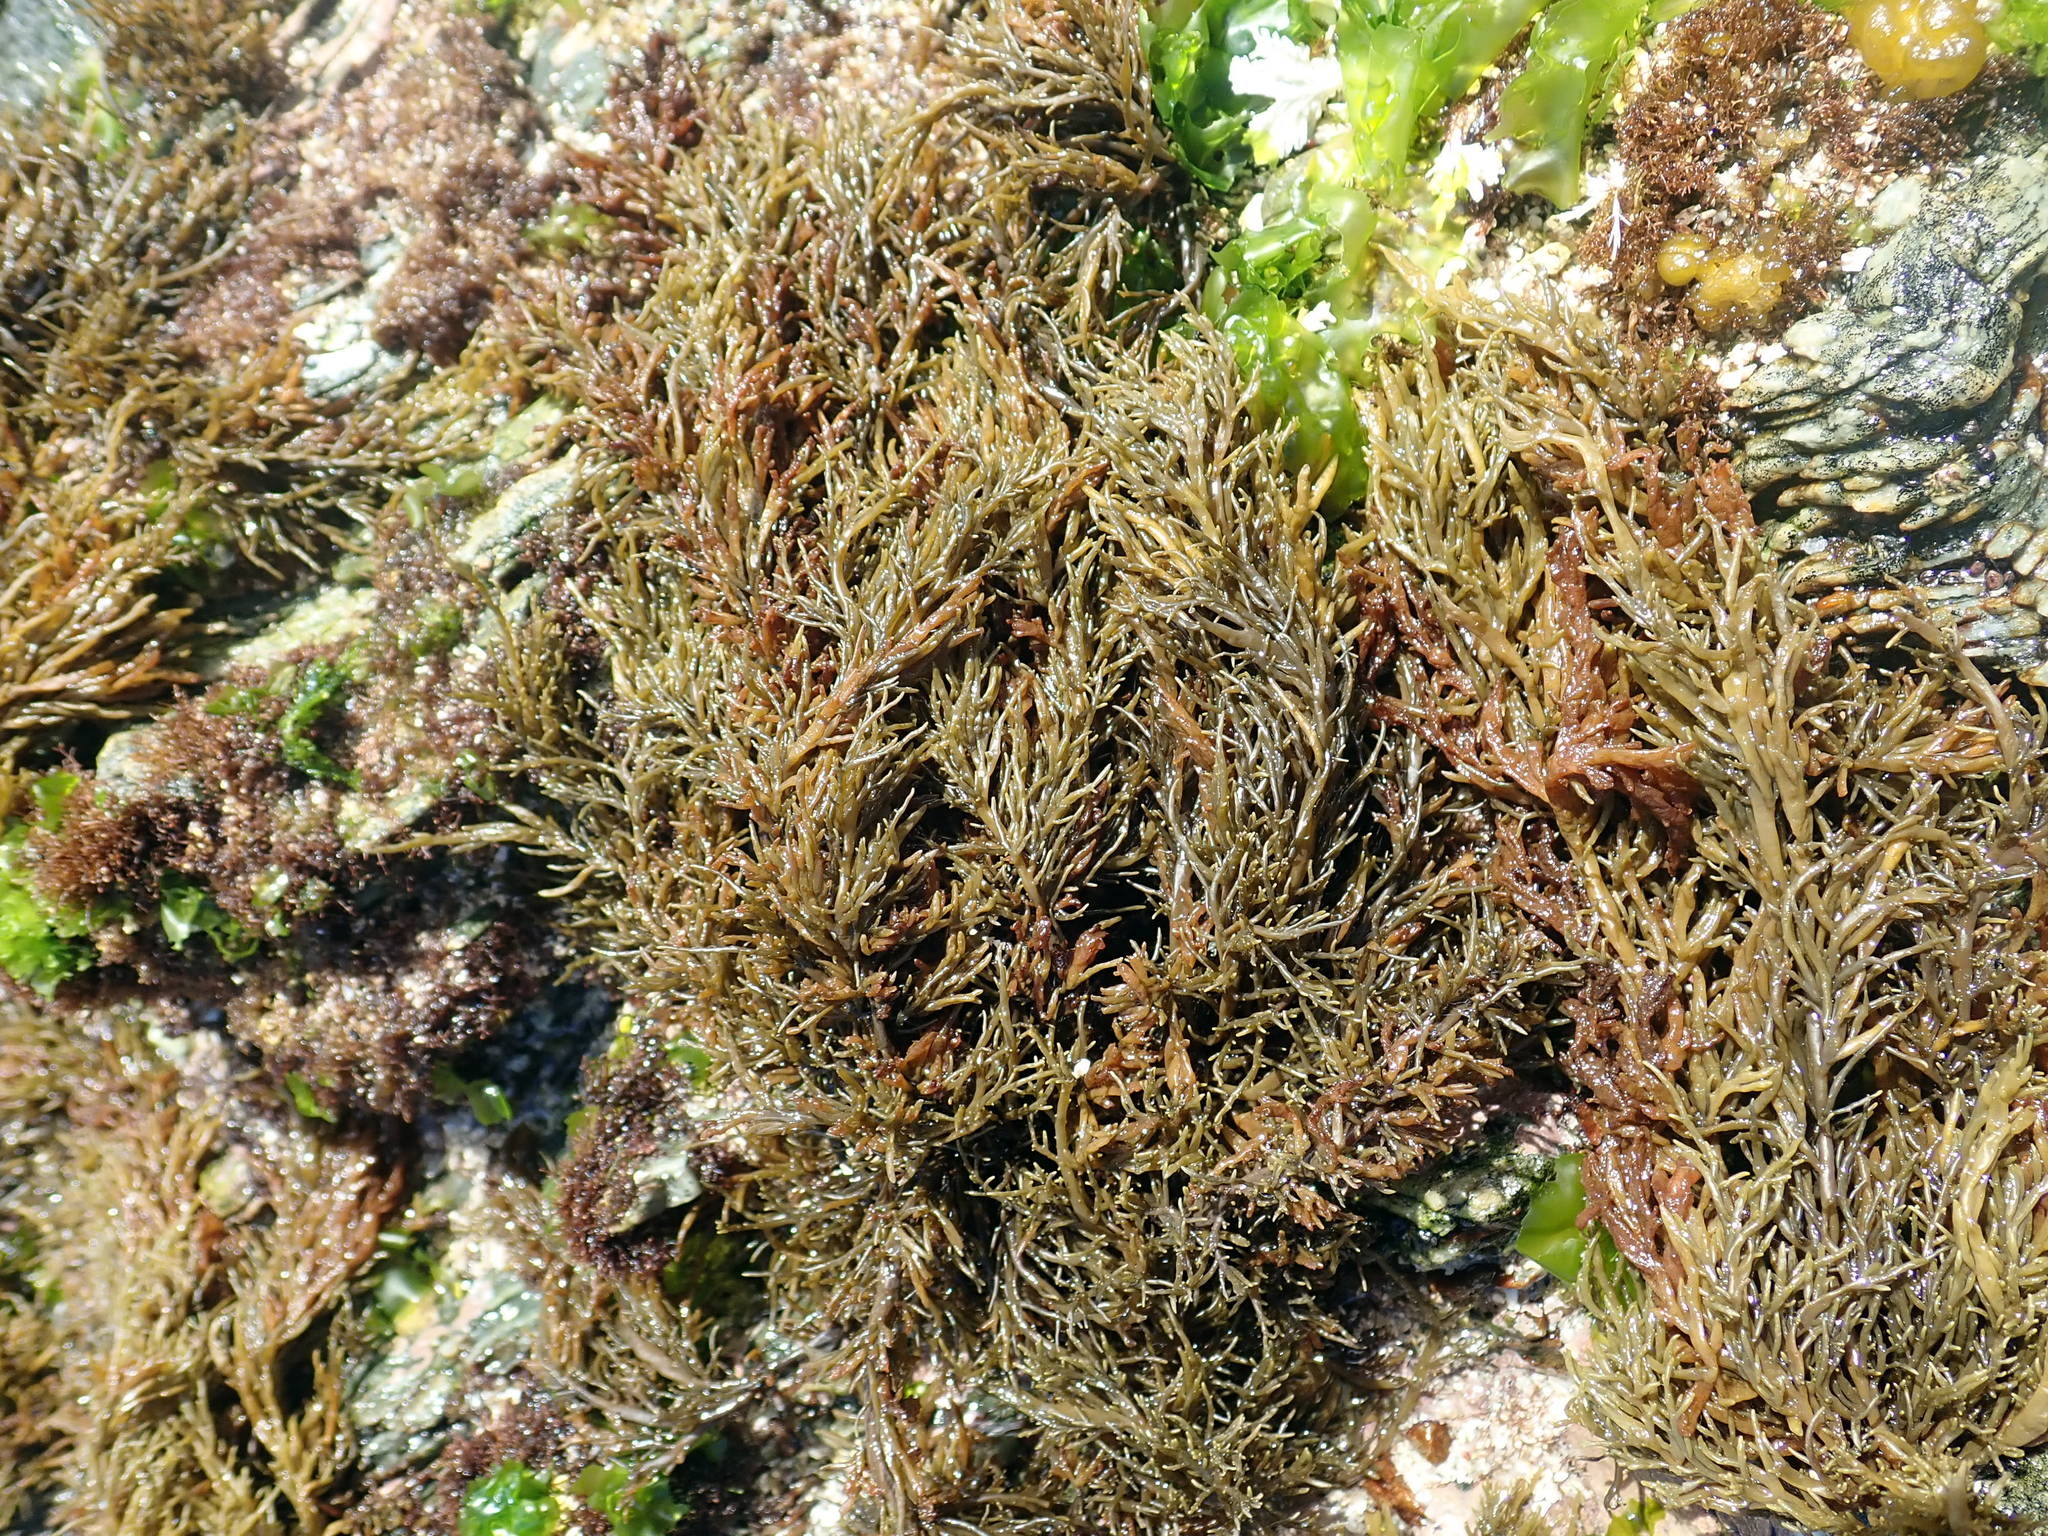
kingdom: Chromista
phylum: Ochrophyta
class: Phaeophyceae
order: Scytothamnales
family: Scytothamnaceae
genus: Scytothamnus
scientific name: Scytothamnus australis
